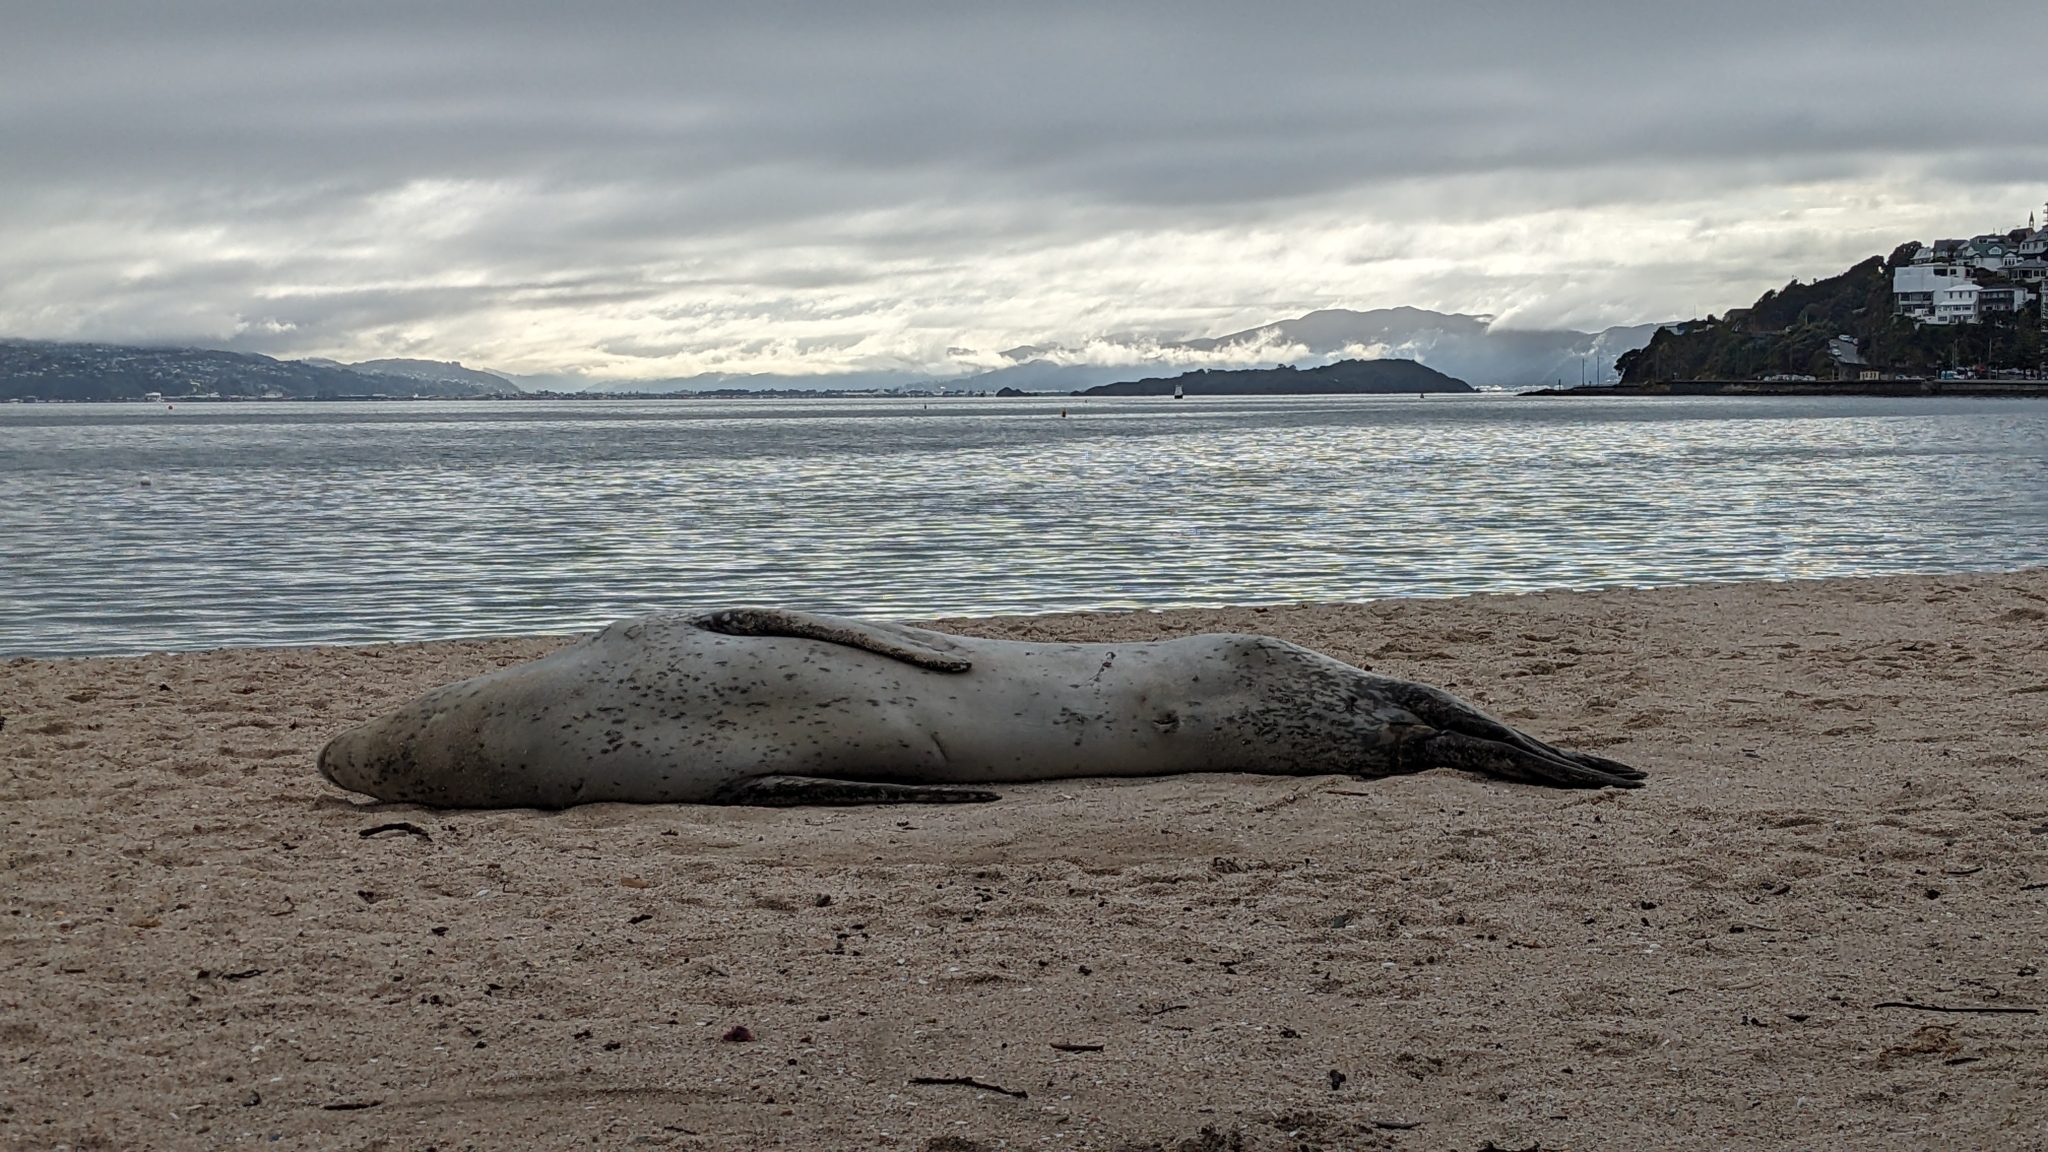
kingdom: Animalia
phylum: Chordata
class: Mammalia
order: Carnivora
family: Phocidae
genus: Hydrurga
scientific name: Hydrurga leptonyx
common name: Leopard seal
